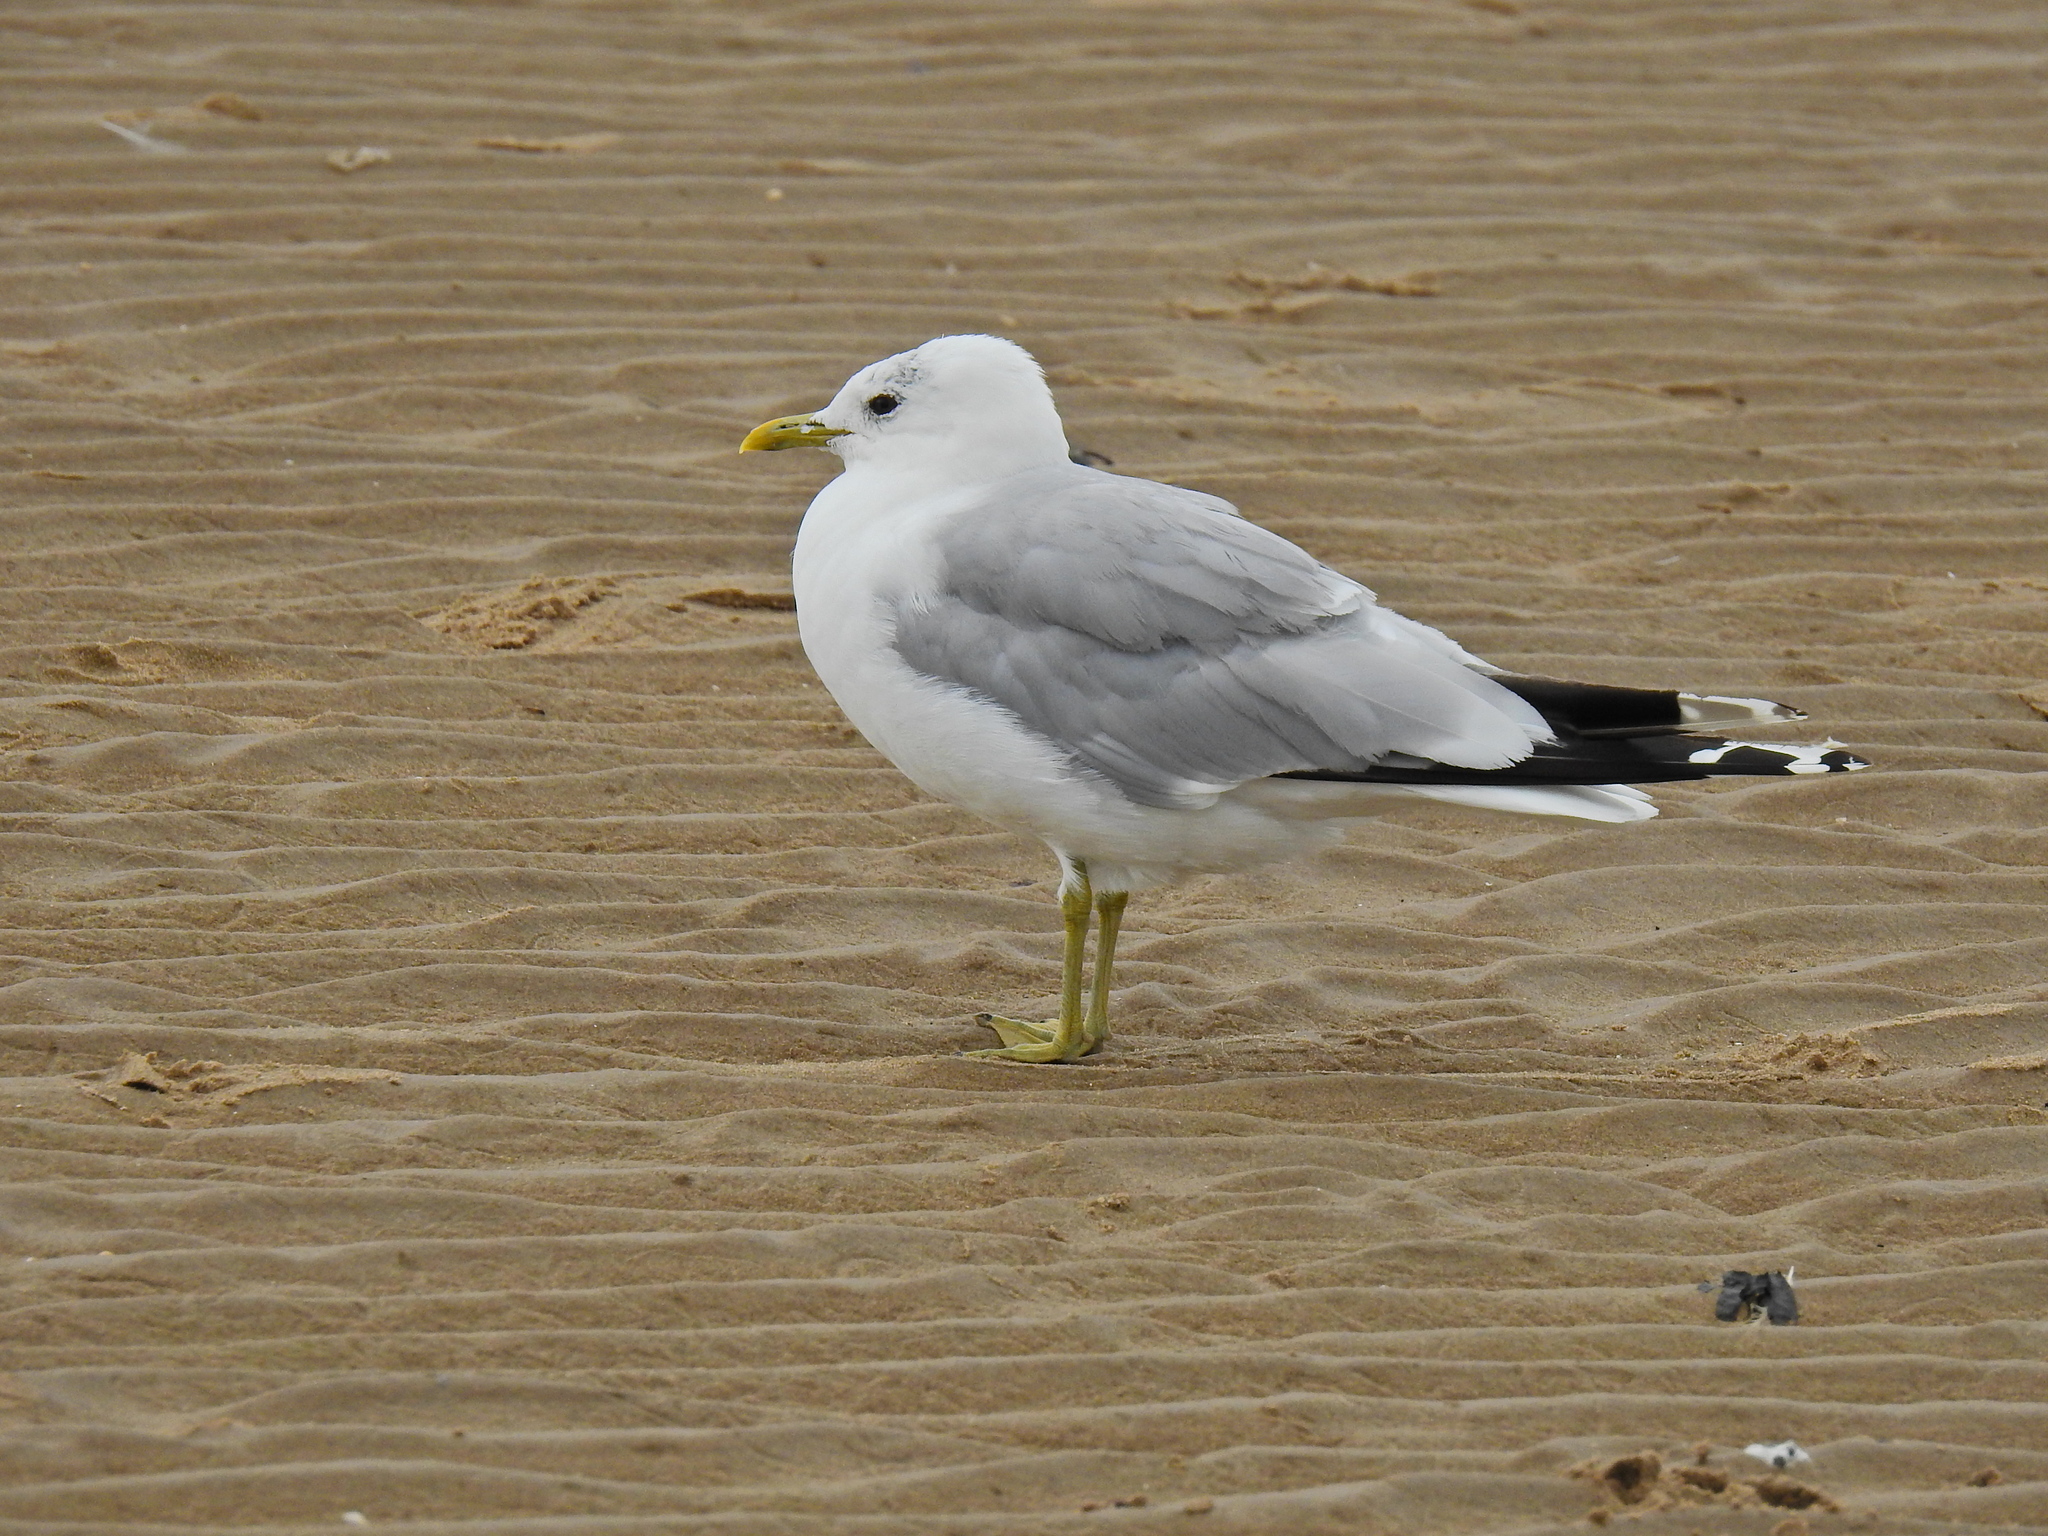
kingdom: Animalia
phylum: Chordata
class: Aves
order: Charadriiformes
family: Laridae
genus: Larus
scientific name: Larus canus
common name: Mew gull
